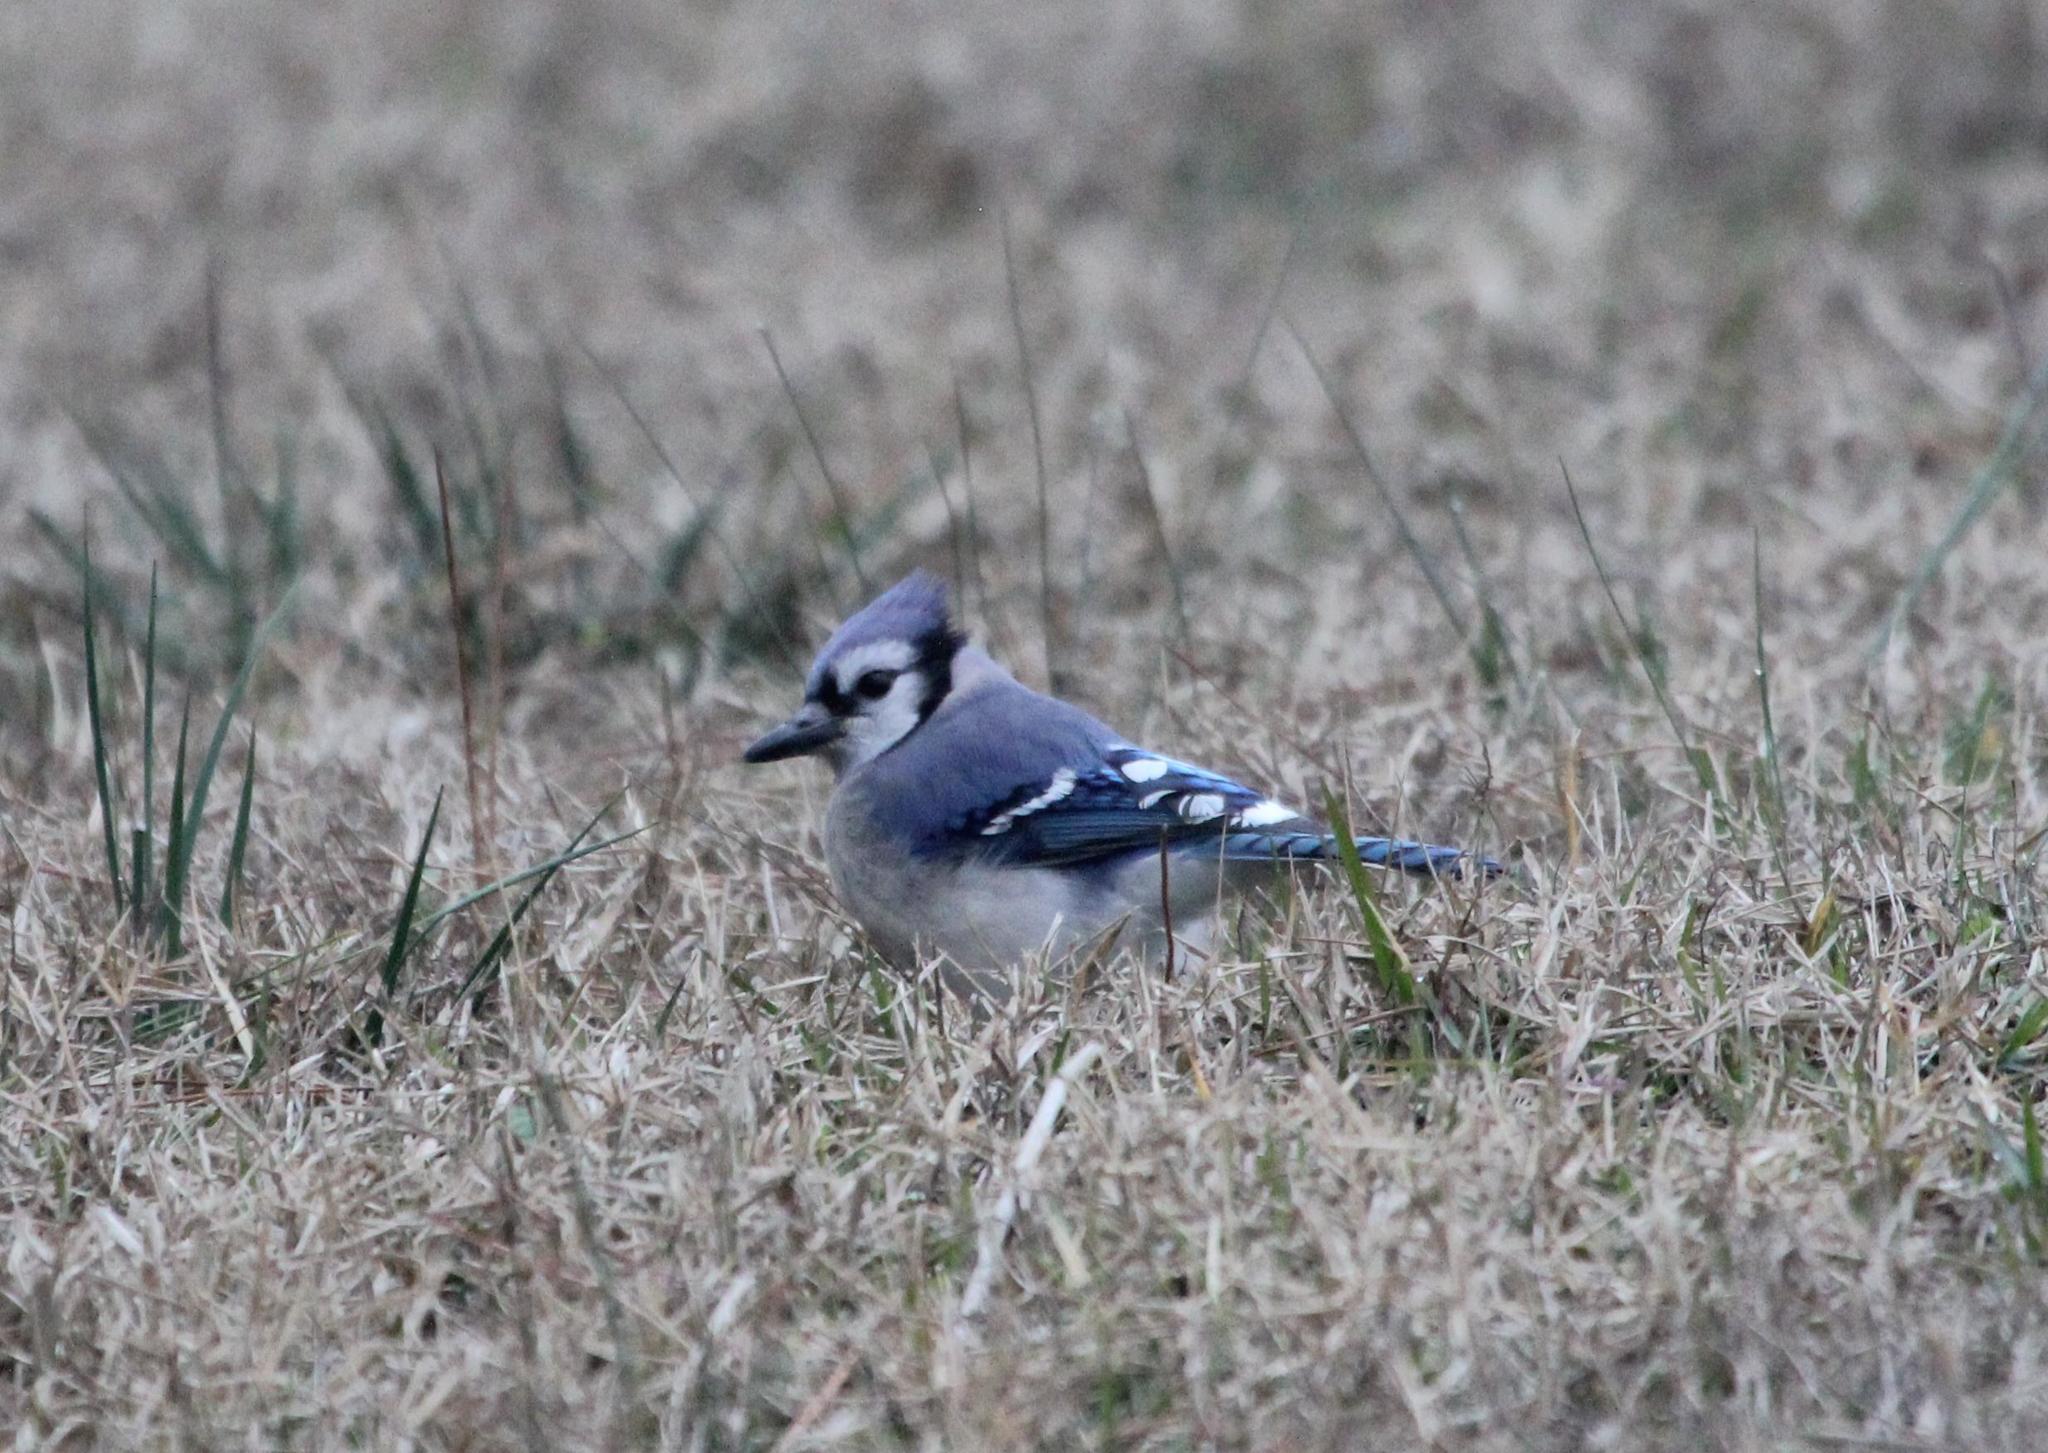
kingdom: Animalia
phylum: Chordata
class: Aves
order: Passeriformes
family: Corvidae
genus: Cyanocitta
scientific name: Cyanocitta cristata
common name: Blue jay
